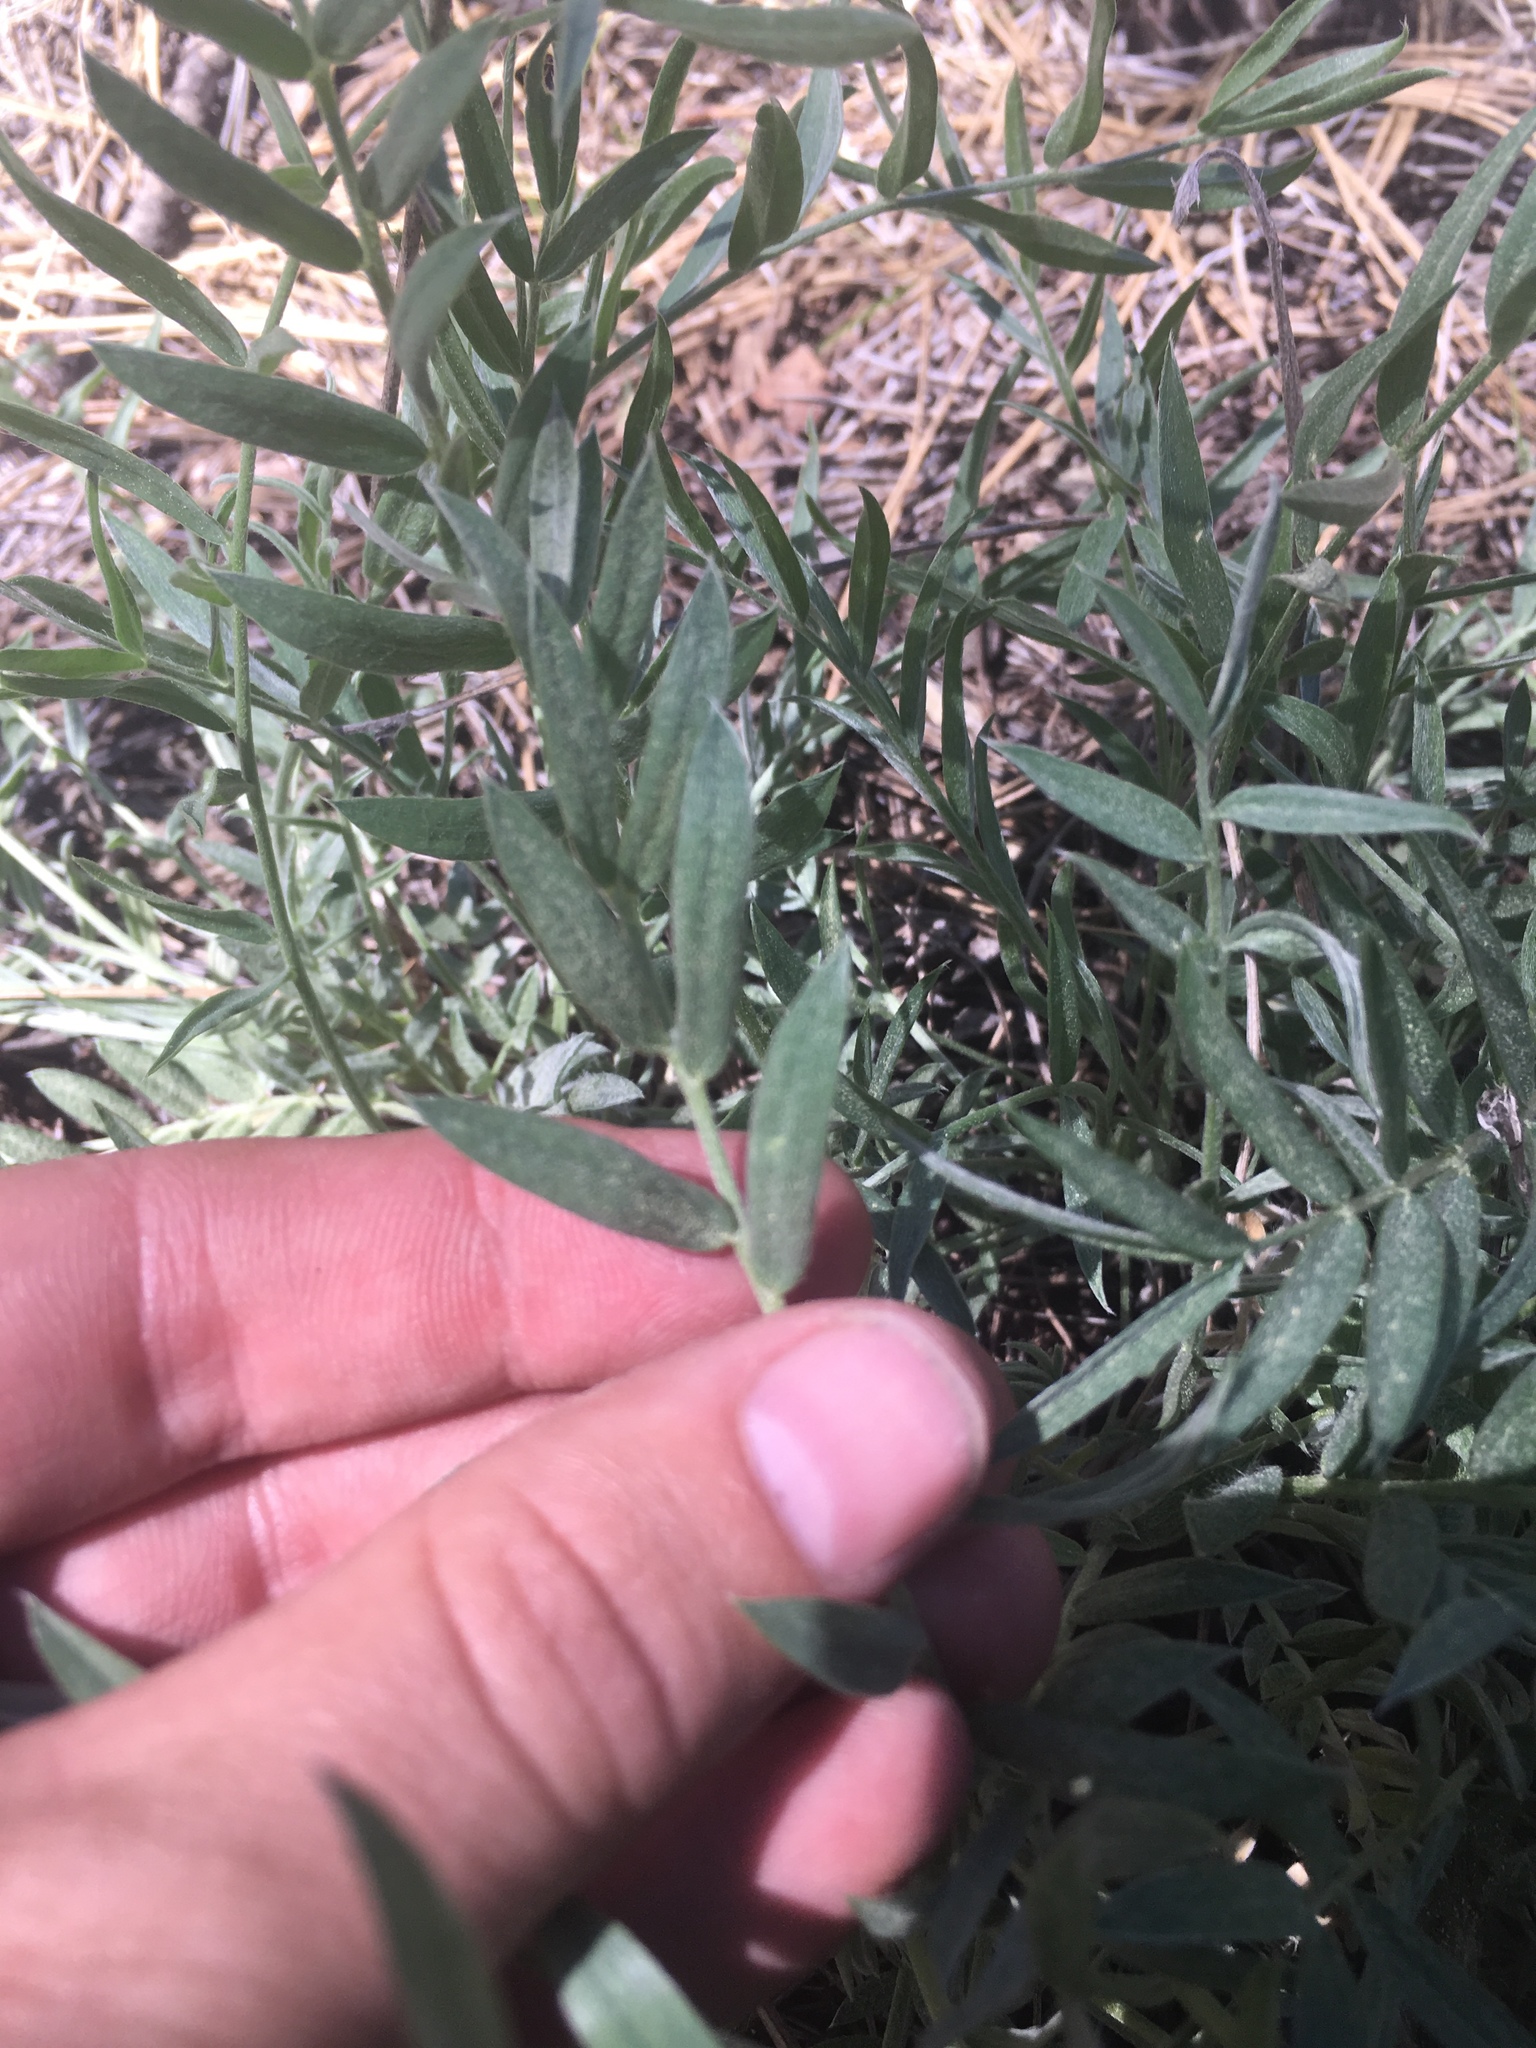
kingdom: Plantae
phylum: Tracheophyta
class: Magnoliopsida
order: Fabales
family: Fabaceae
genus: Oxytropis
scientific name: Oxytropis lambertii
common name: Purple locoweed
